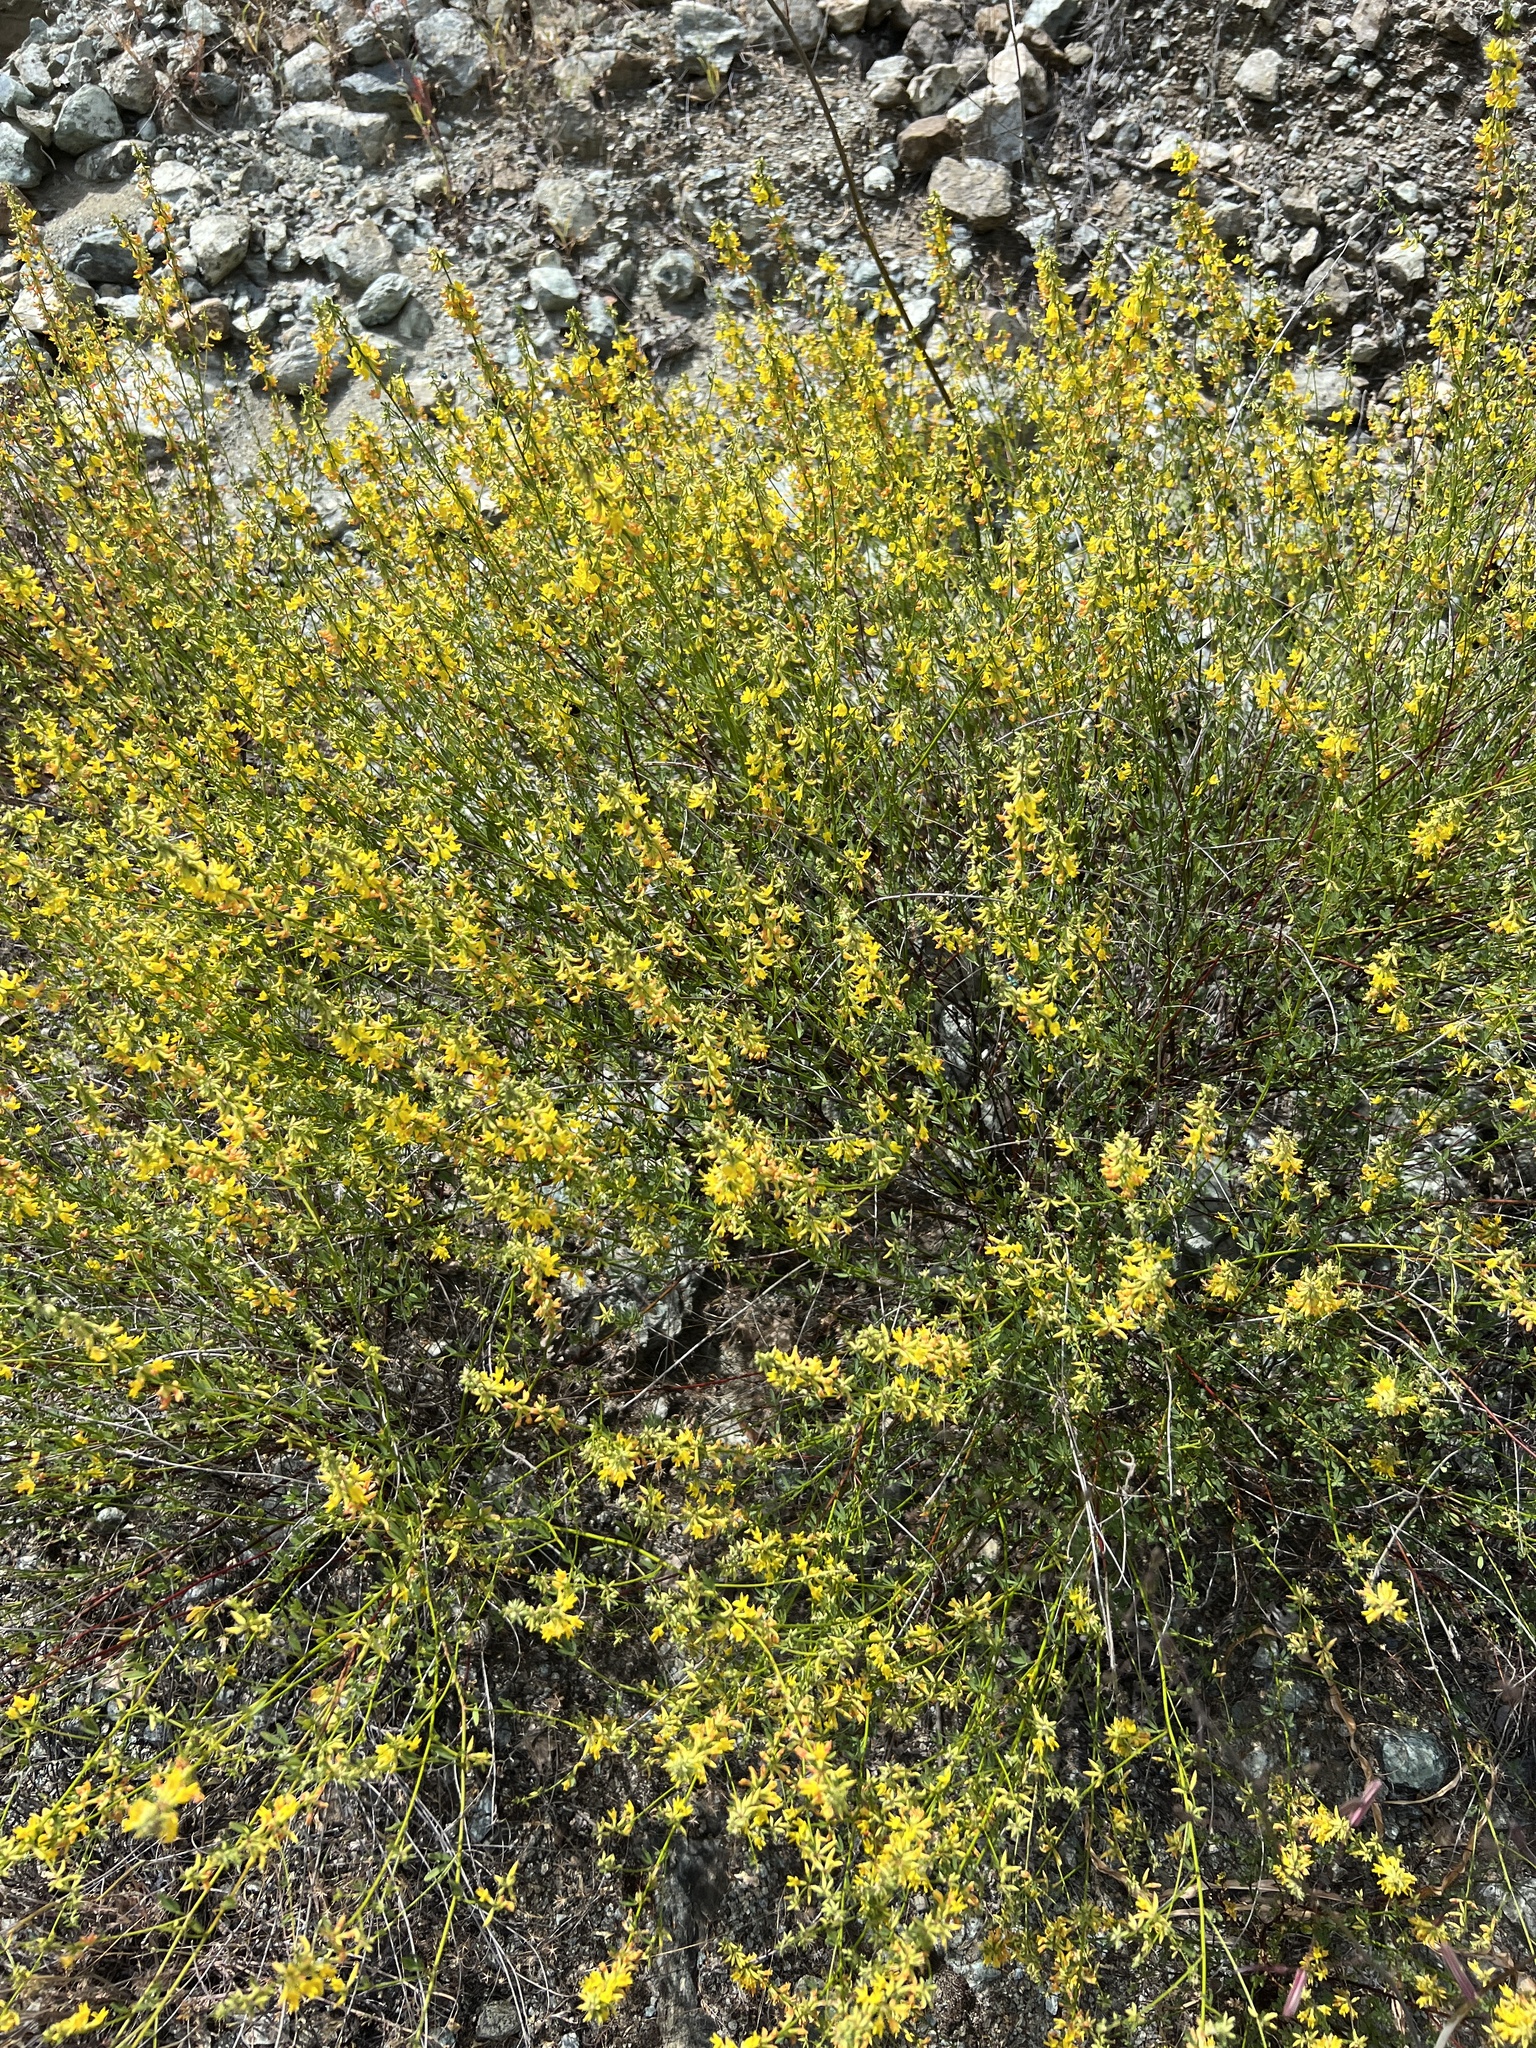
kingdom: Plantae
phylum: Tracheophyta
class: Magnoliopsida
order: Fabales
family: Fabaceae
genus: Acmispon
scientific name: Acmispon glaber
